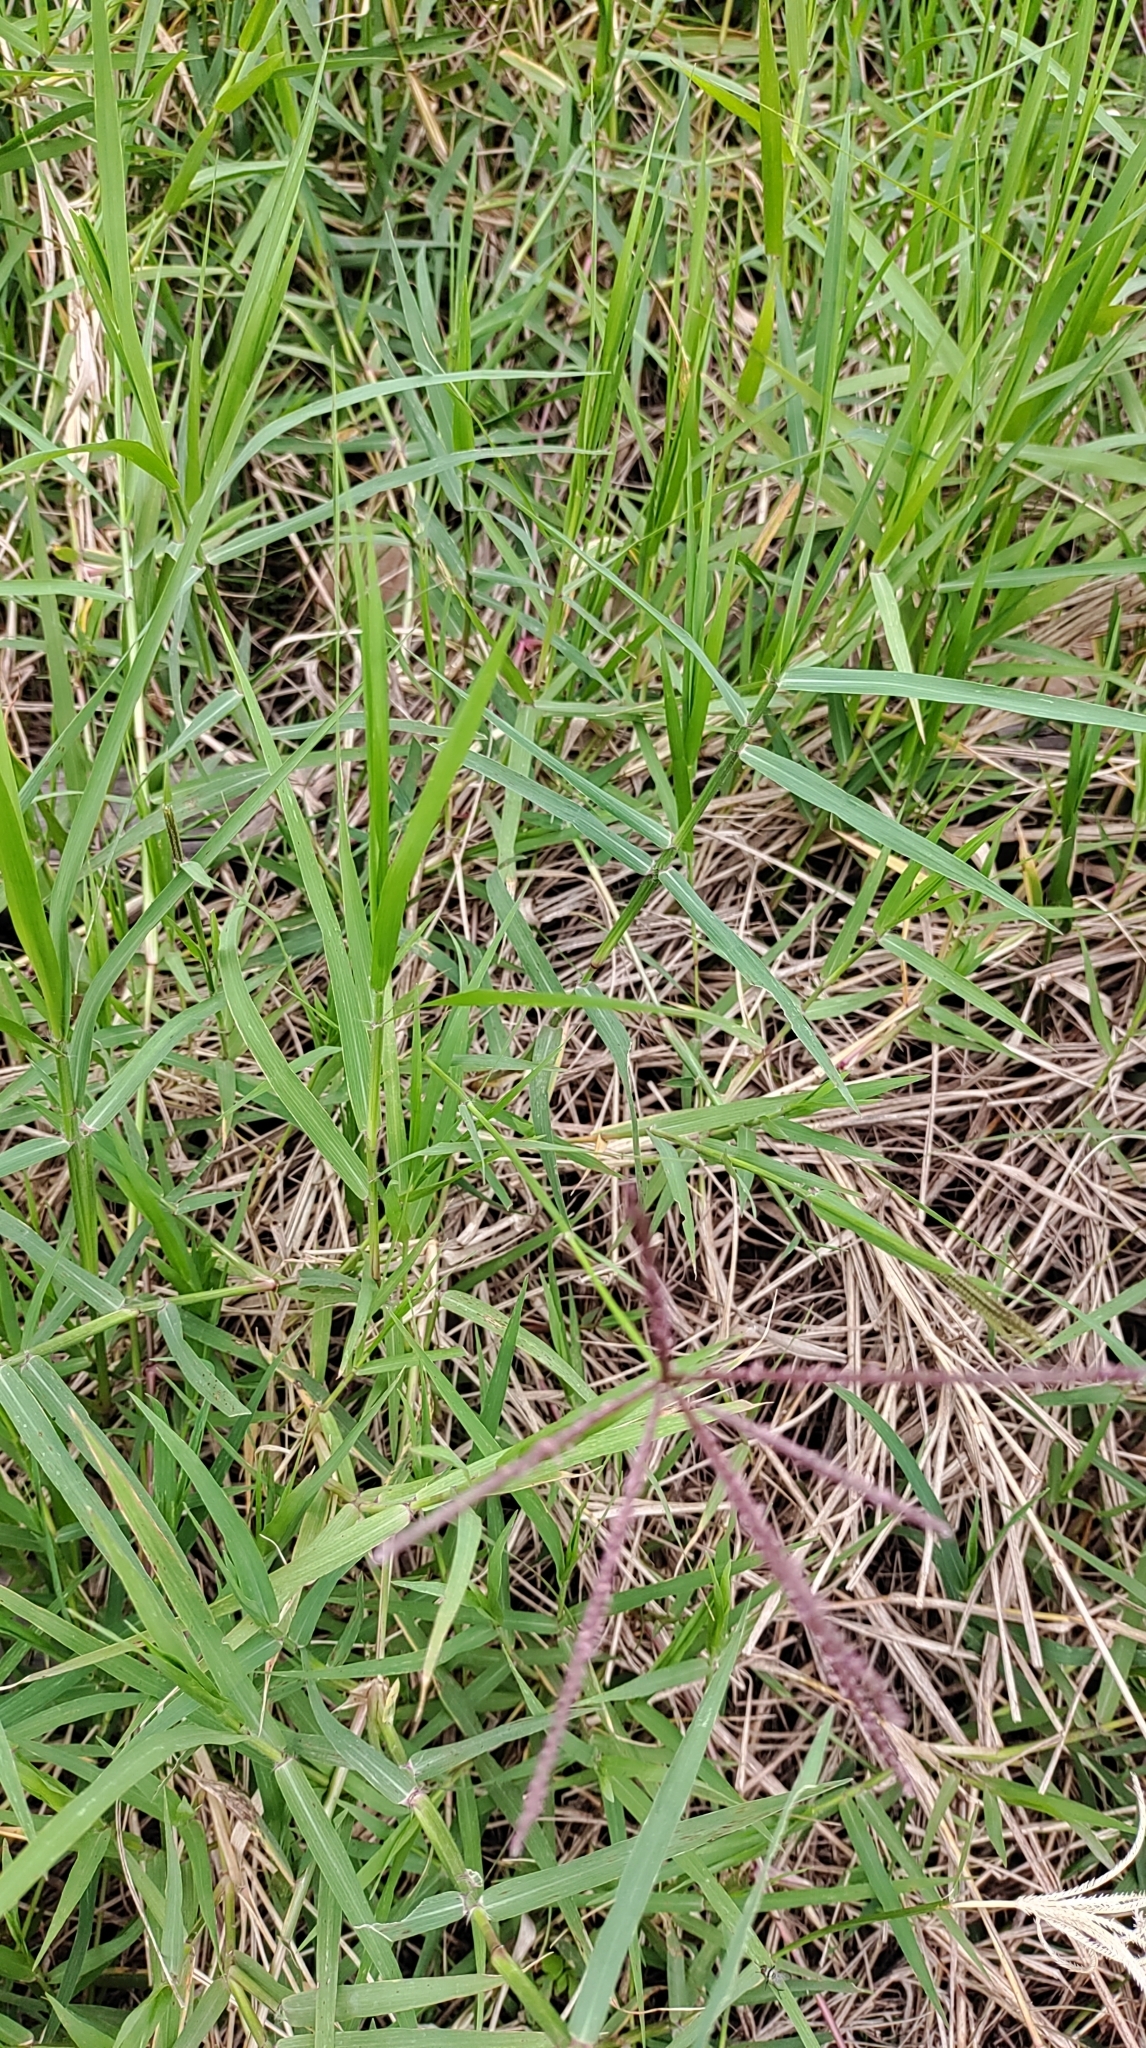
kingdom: Plantae
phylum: Tracheophyta
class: Liliopsida
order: Poales
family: Poaceae
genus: Cynodon
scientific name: Cynodon nlemfuensis
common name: African bermudagrass
